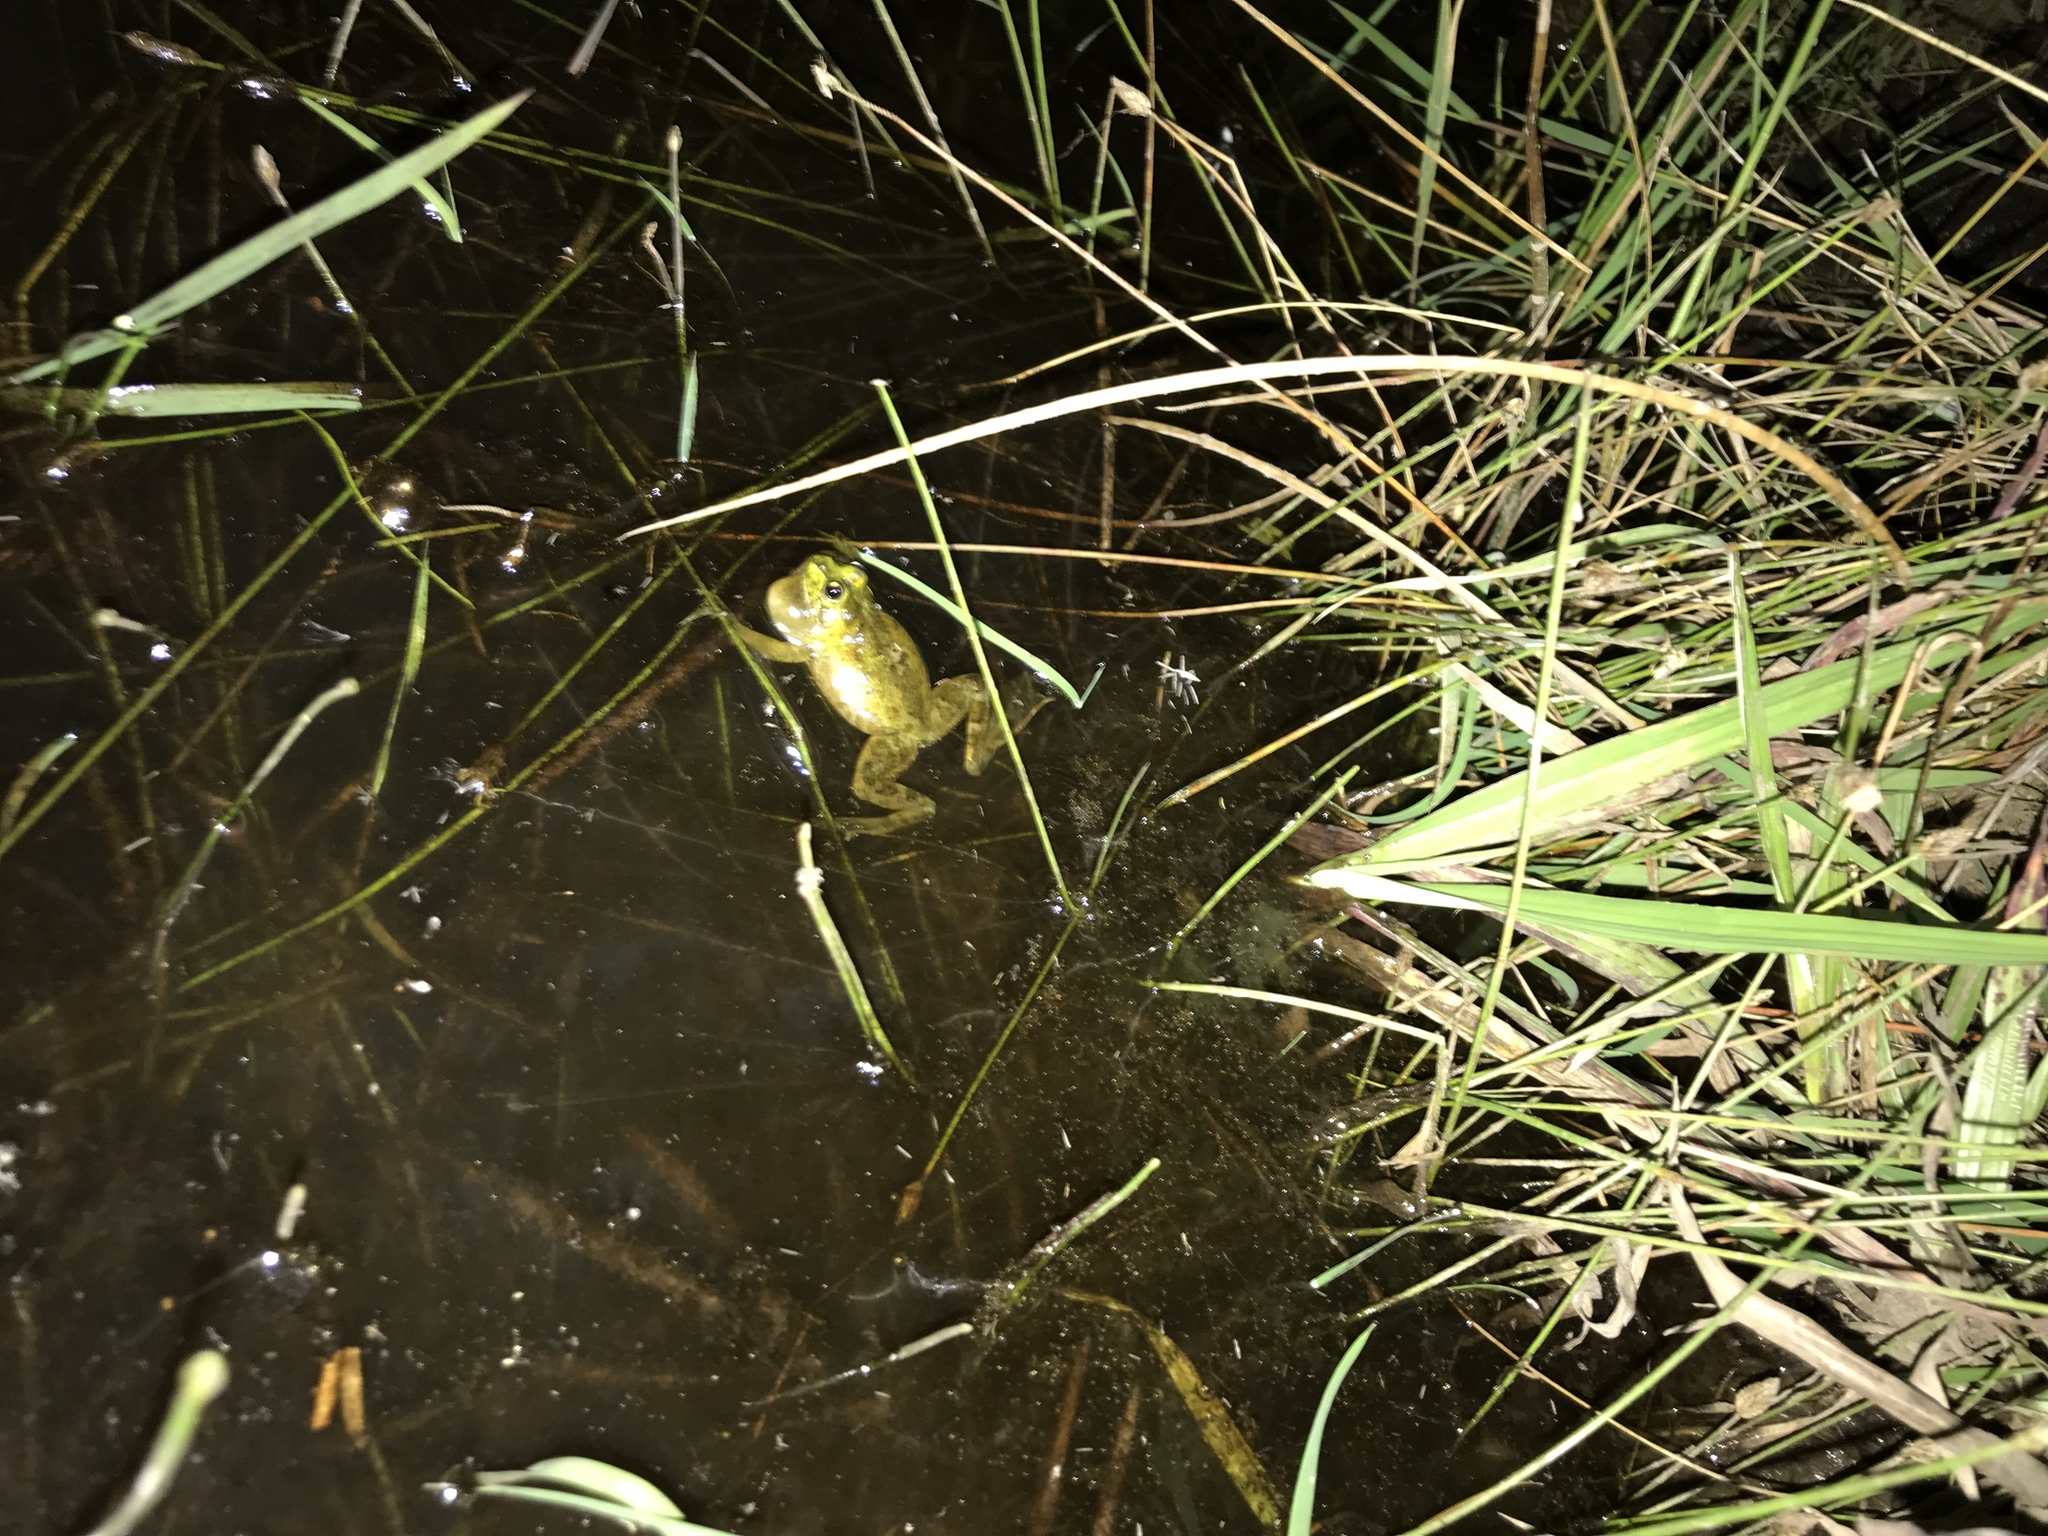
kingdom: Animalia
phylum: Chordata
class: Amphibia
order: Anura
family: Hylidae
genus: Pseudis
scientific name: Pseudis minuta
